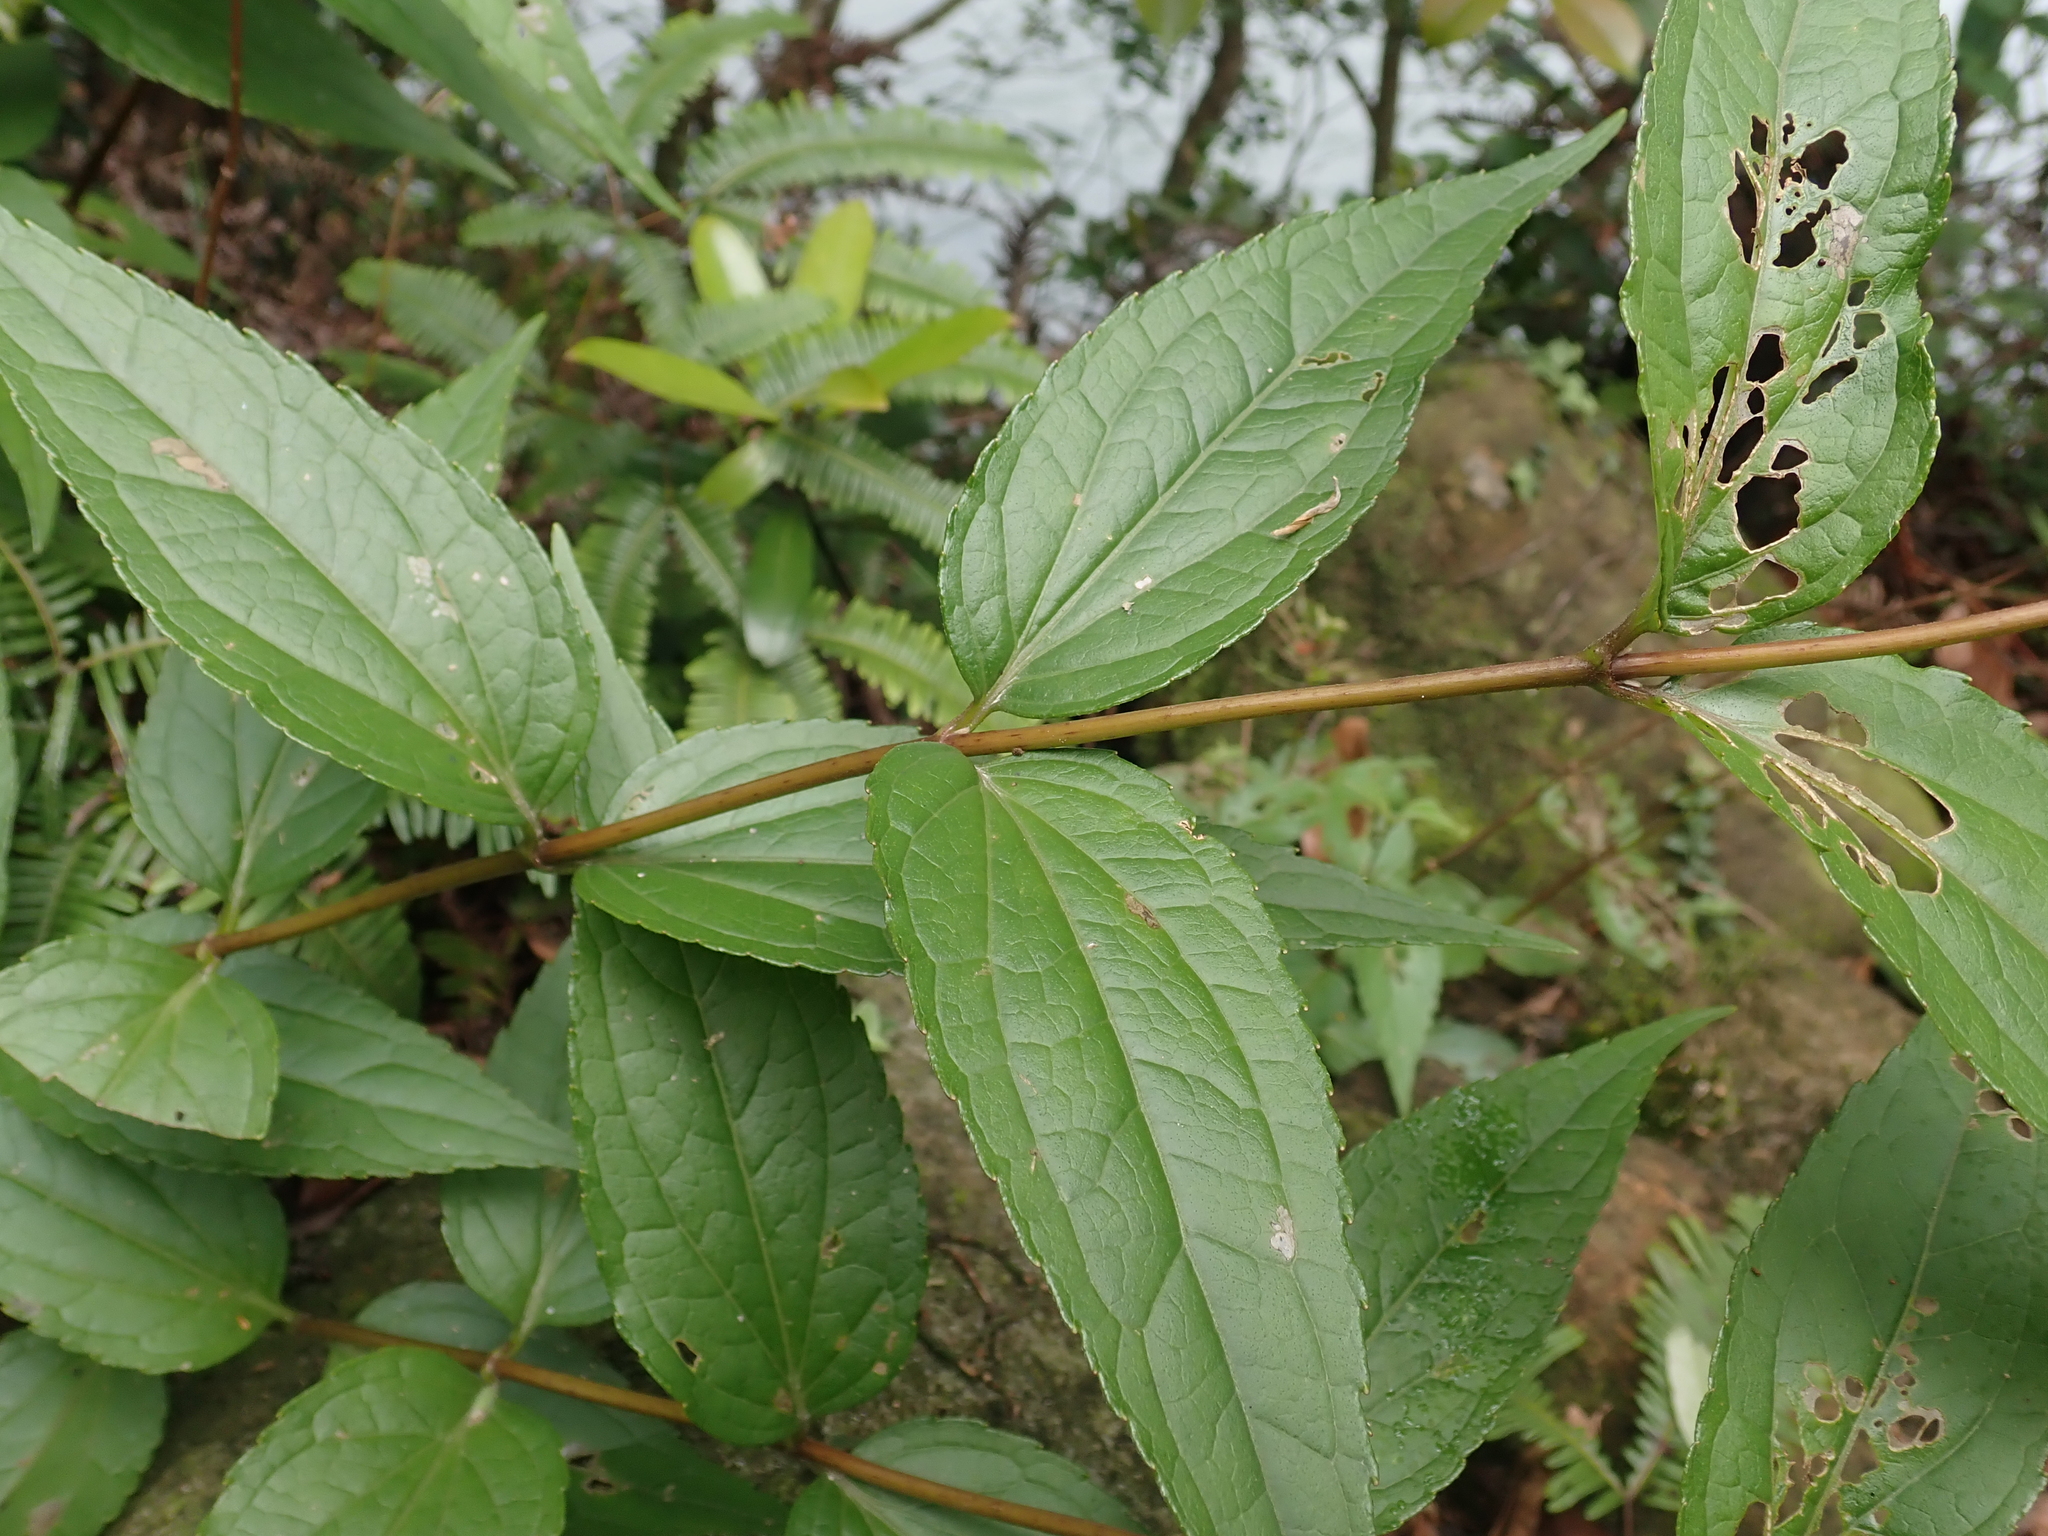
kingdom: Plantae
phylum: Tracheophyta
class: Magnoliopsida
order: Asterales
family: Asteraceae
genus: Eupatorium
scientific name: Eupatorium luchuense
